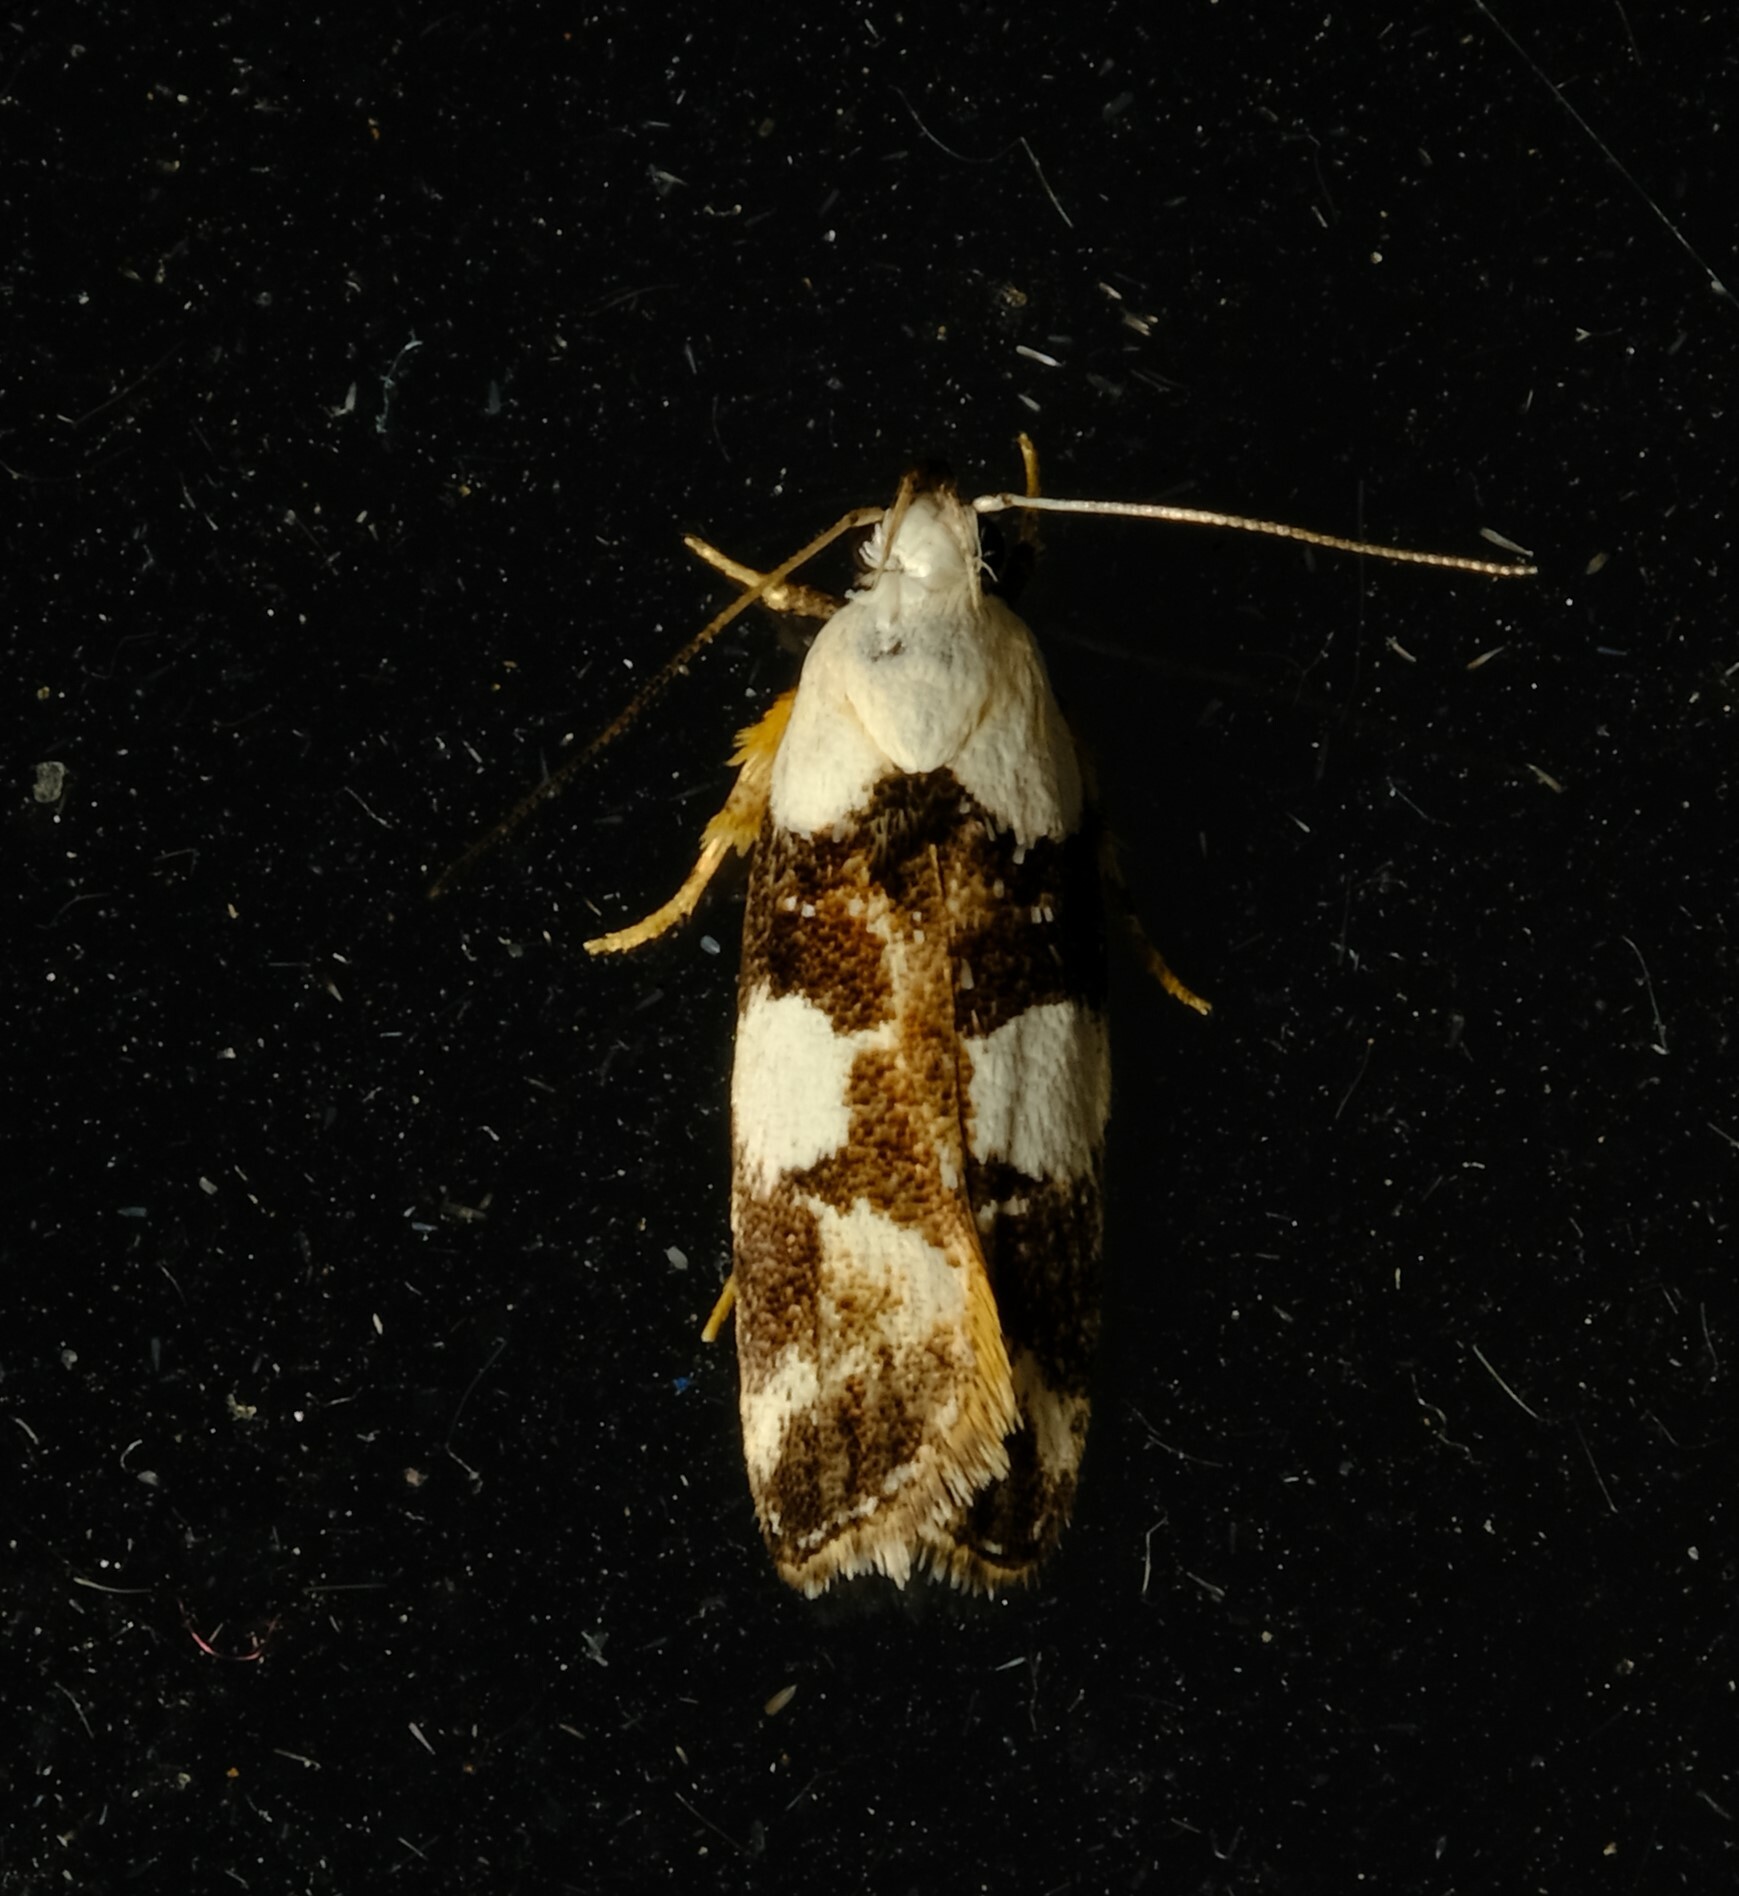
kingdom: Animalia
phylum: Arthropoda
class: Insecta
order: Lepidoptera
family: Gelechiidae
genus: Ardozyga
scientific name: Ardozyga abruptella
